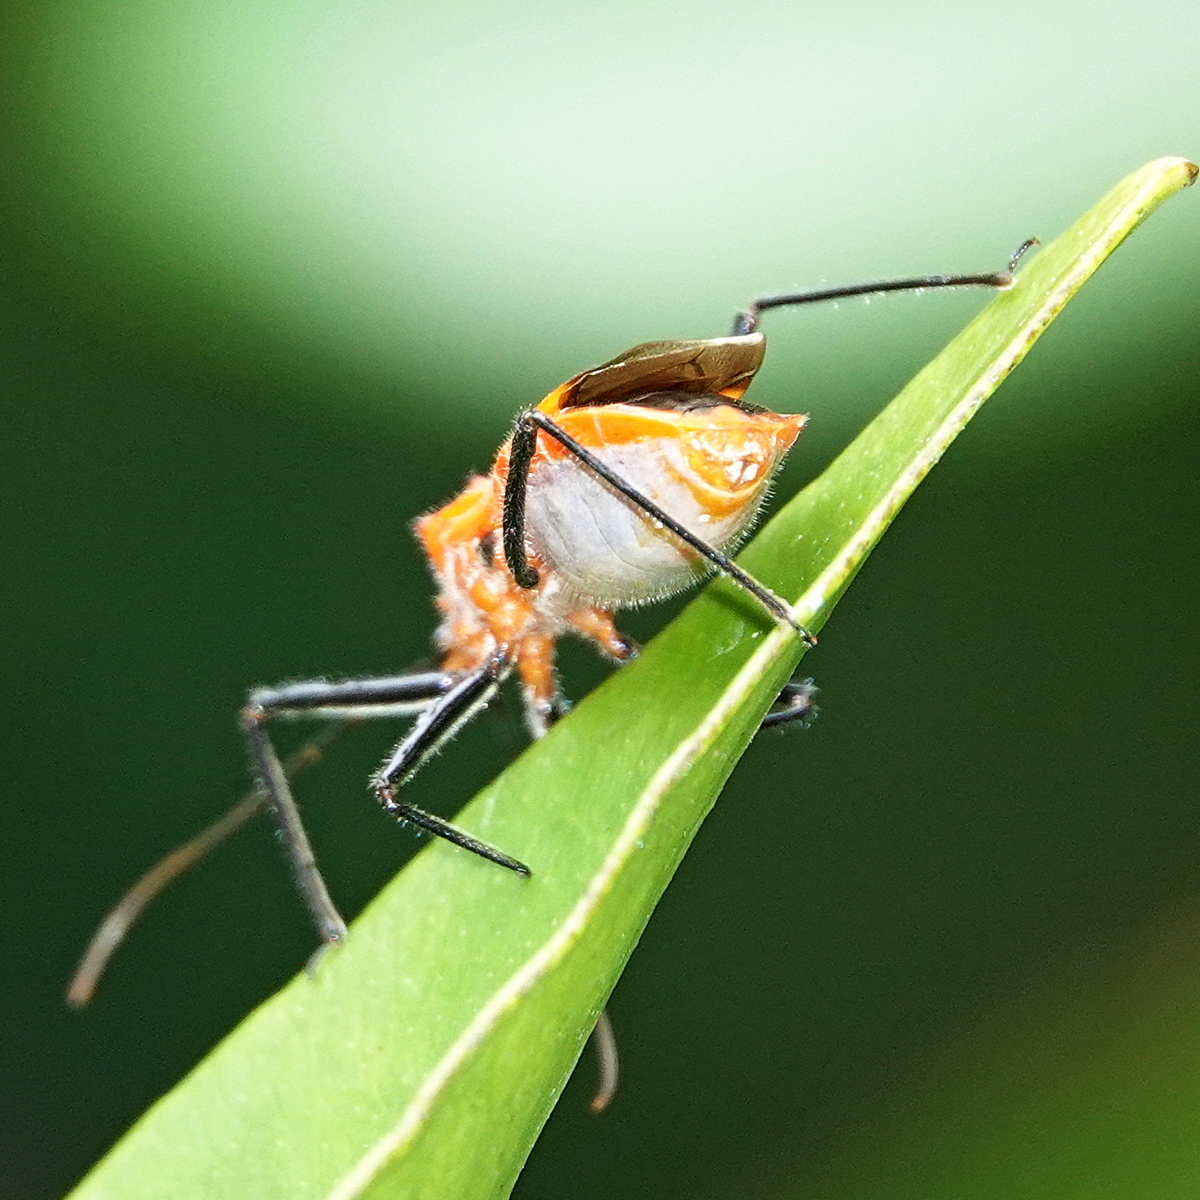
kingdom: Animalia
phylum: Arthropoda
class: Insecta
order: Hemiptera
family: Reduviidae
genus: Gminatus
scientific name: Gminatus australis
